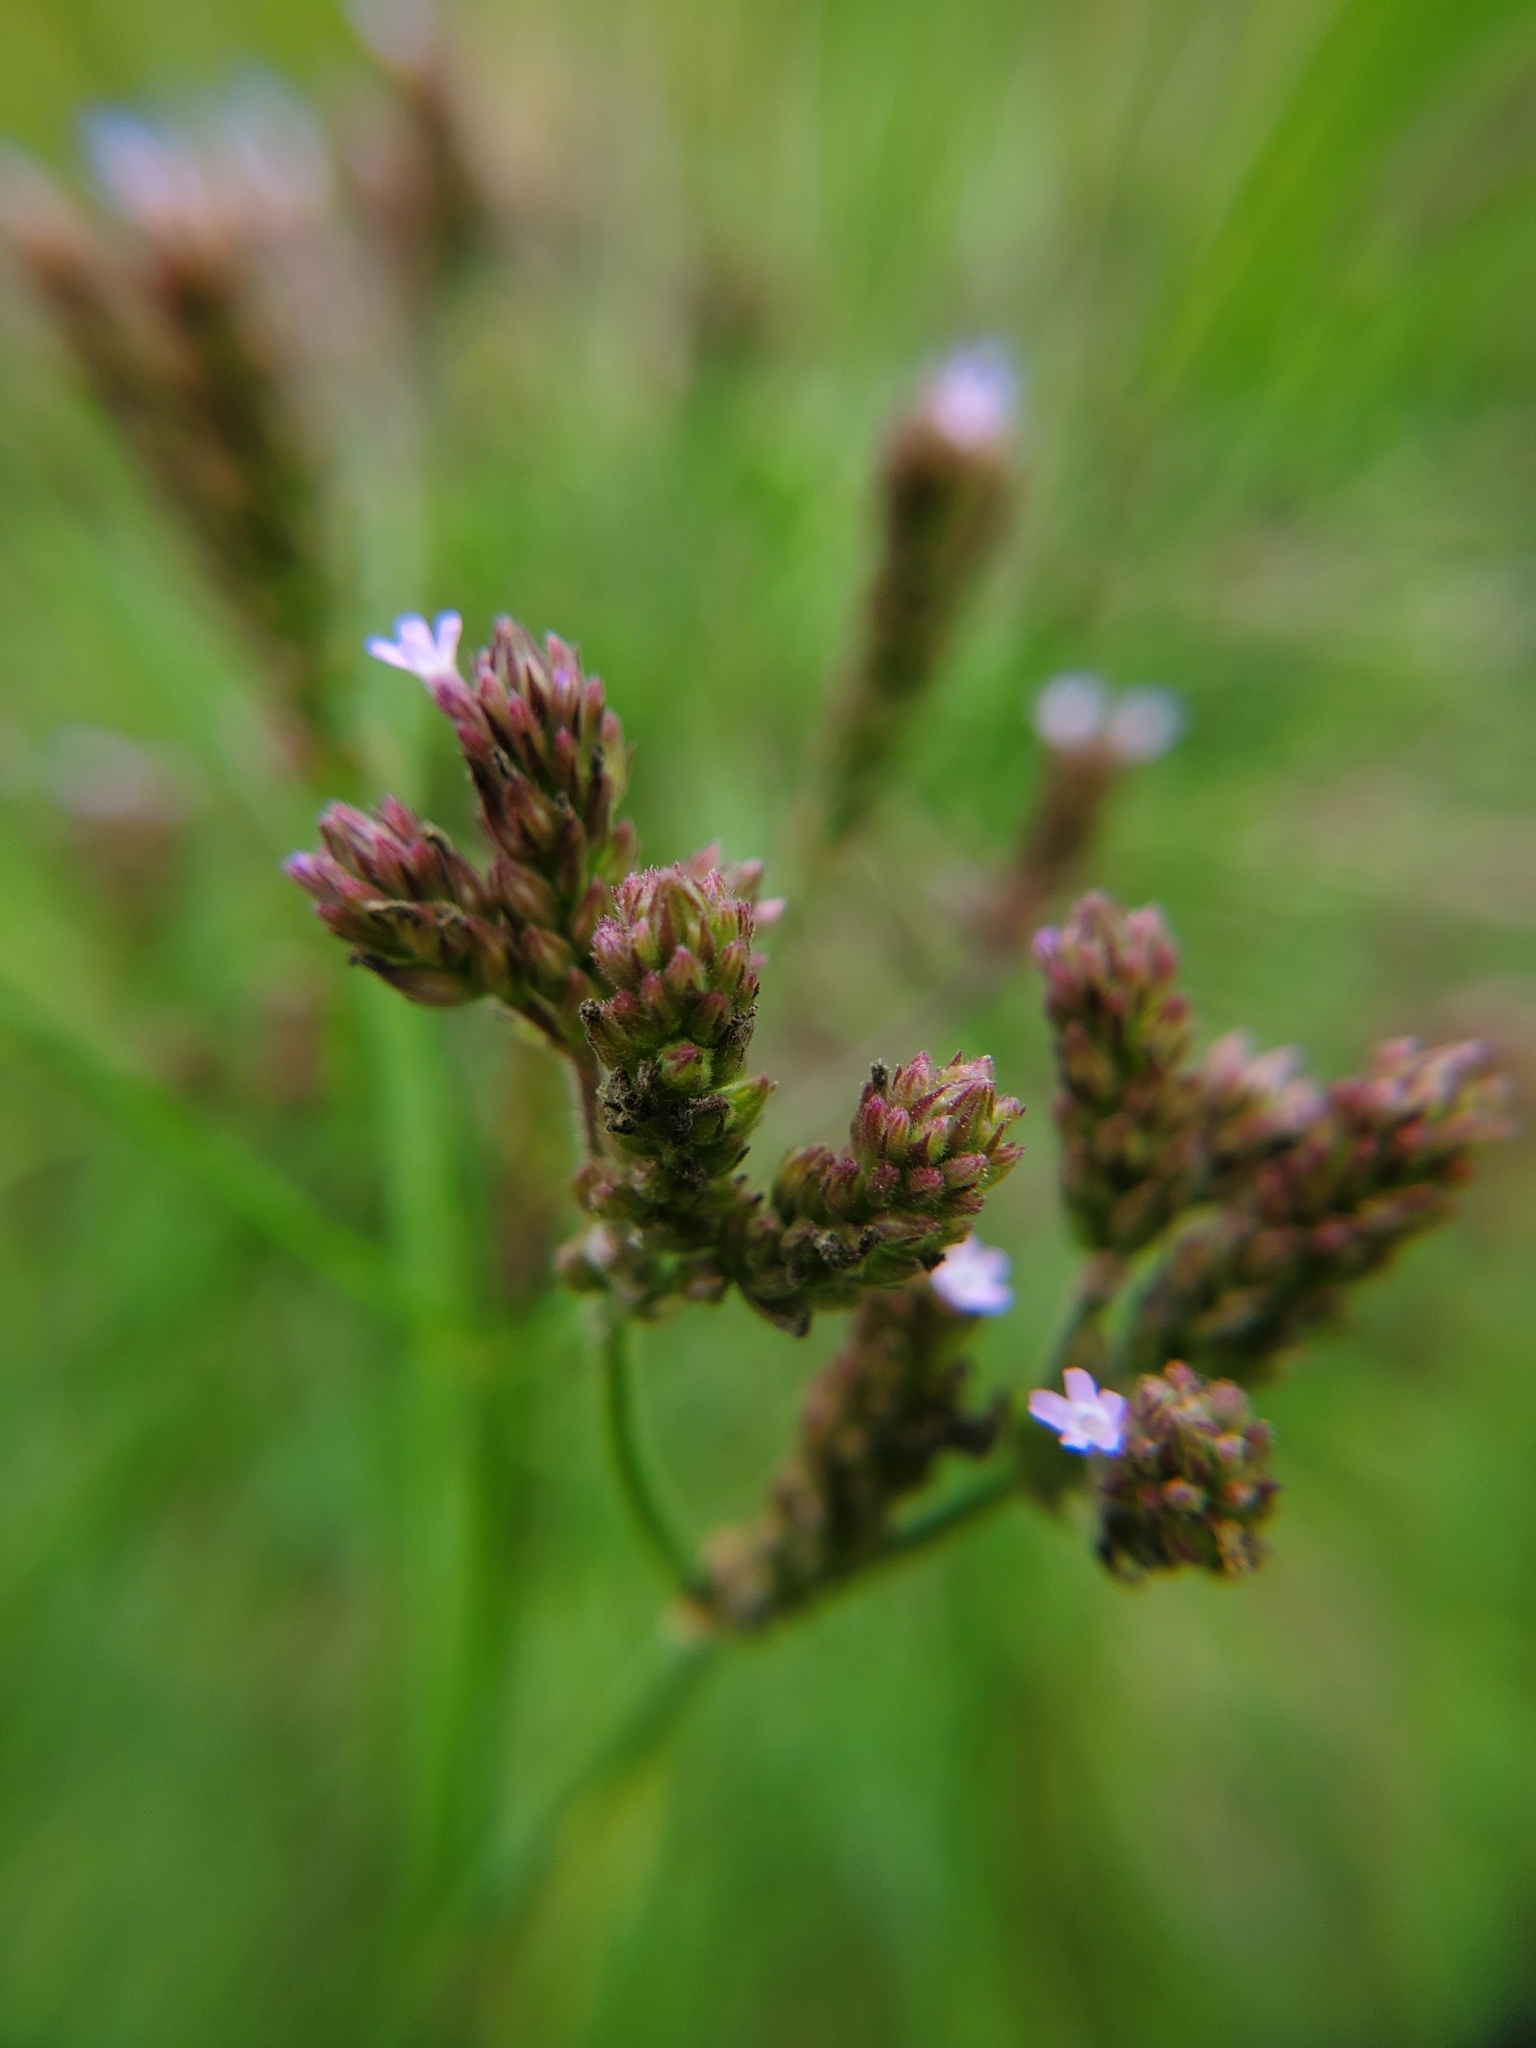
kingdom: Plantae
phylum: Tracheophyta
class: Magnoliopsida
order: Lamiales
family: Verbenaceae
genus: Verbena
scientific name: Verbena brasiliensis
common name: Brazilian vervain
